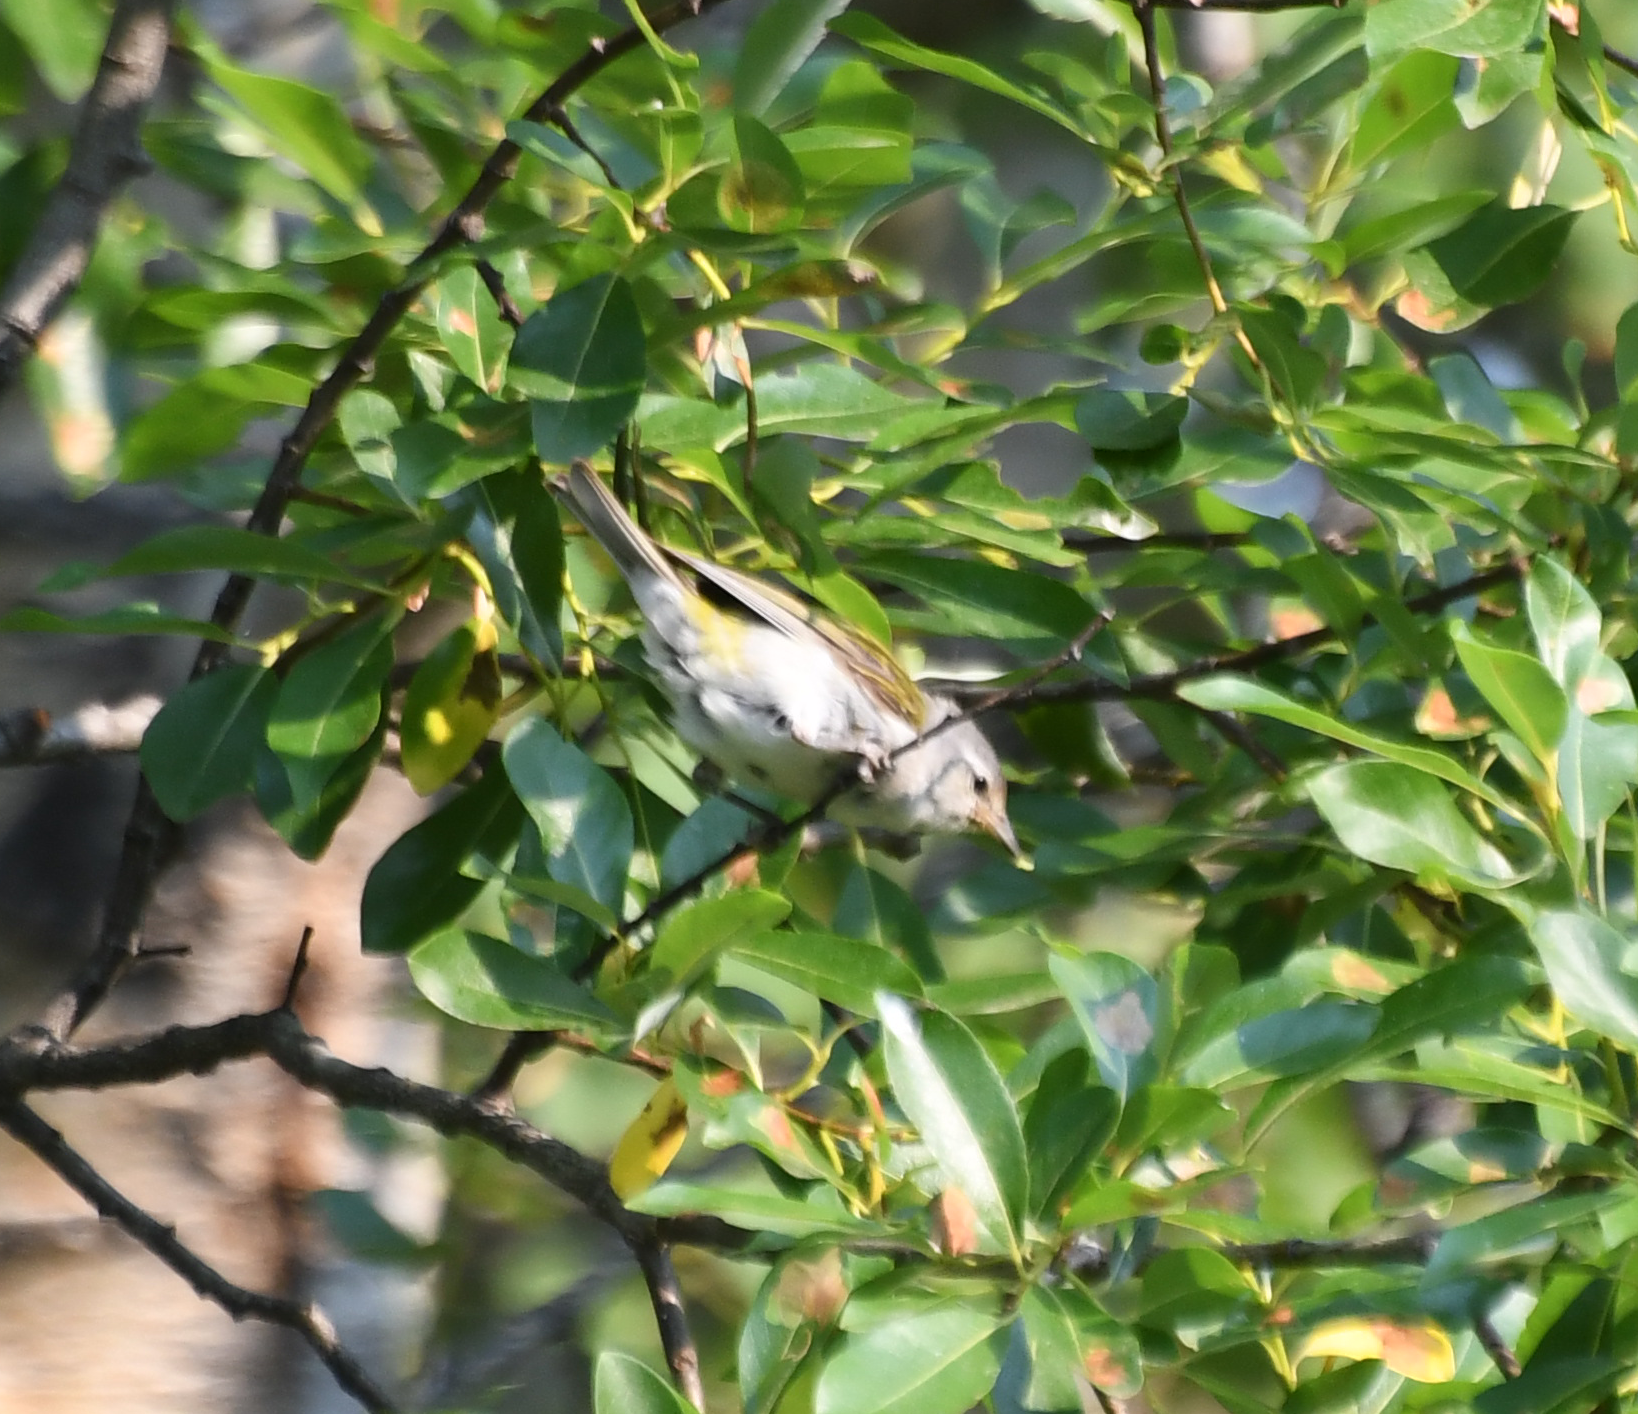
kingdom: Animalia
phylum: Chordata
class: Aves
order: Passeriformes
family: Parulidae
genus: Leiothlypis
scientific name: Leiothlypis peregrina
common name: Tennessee warbler
